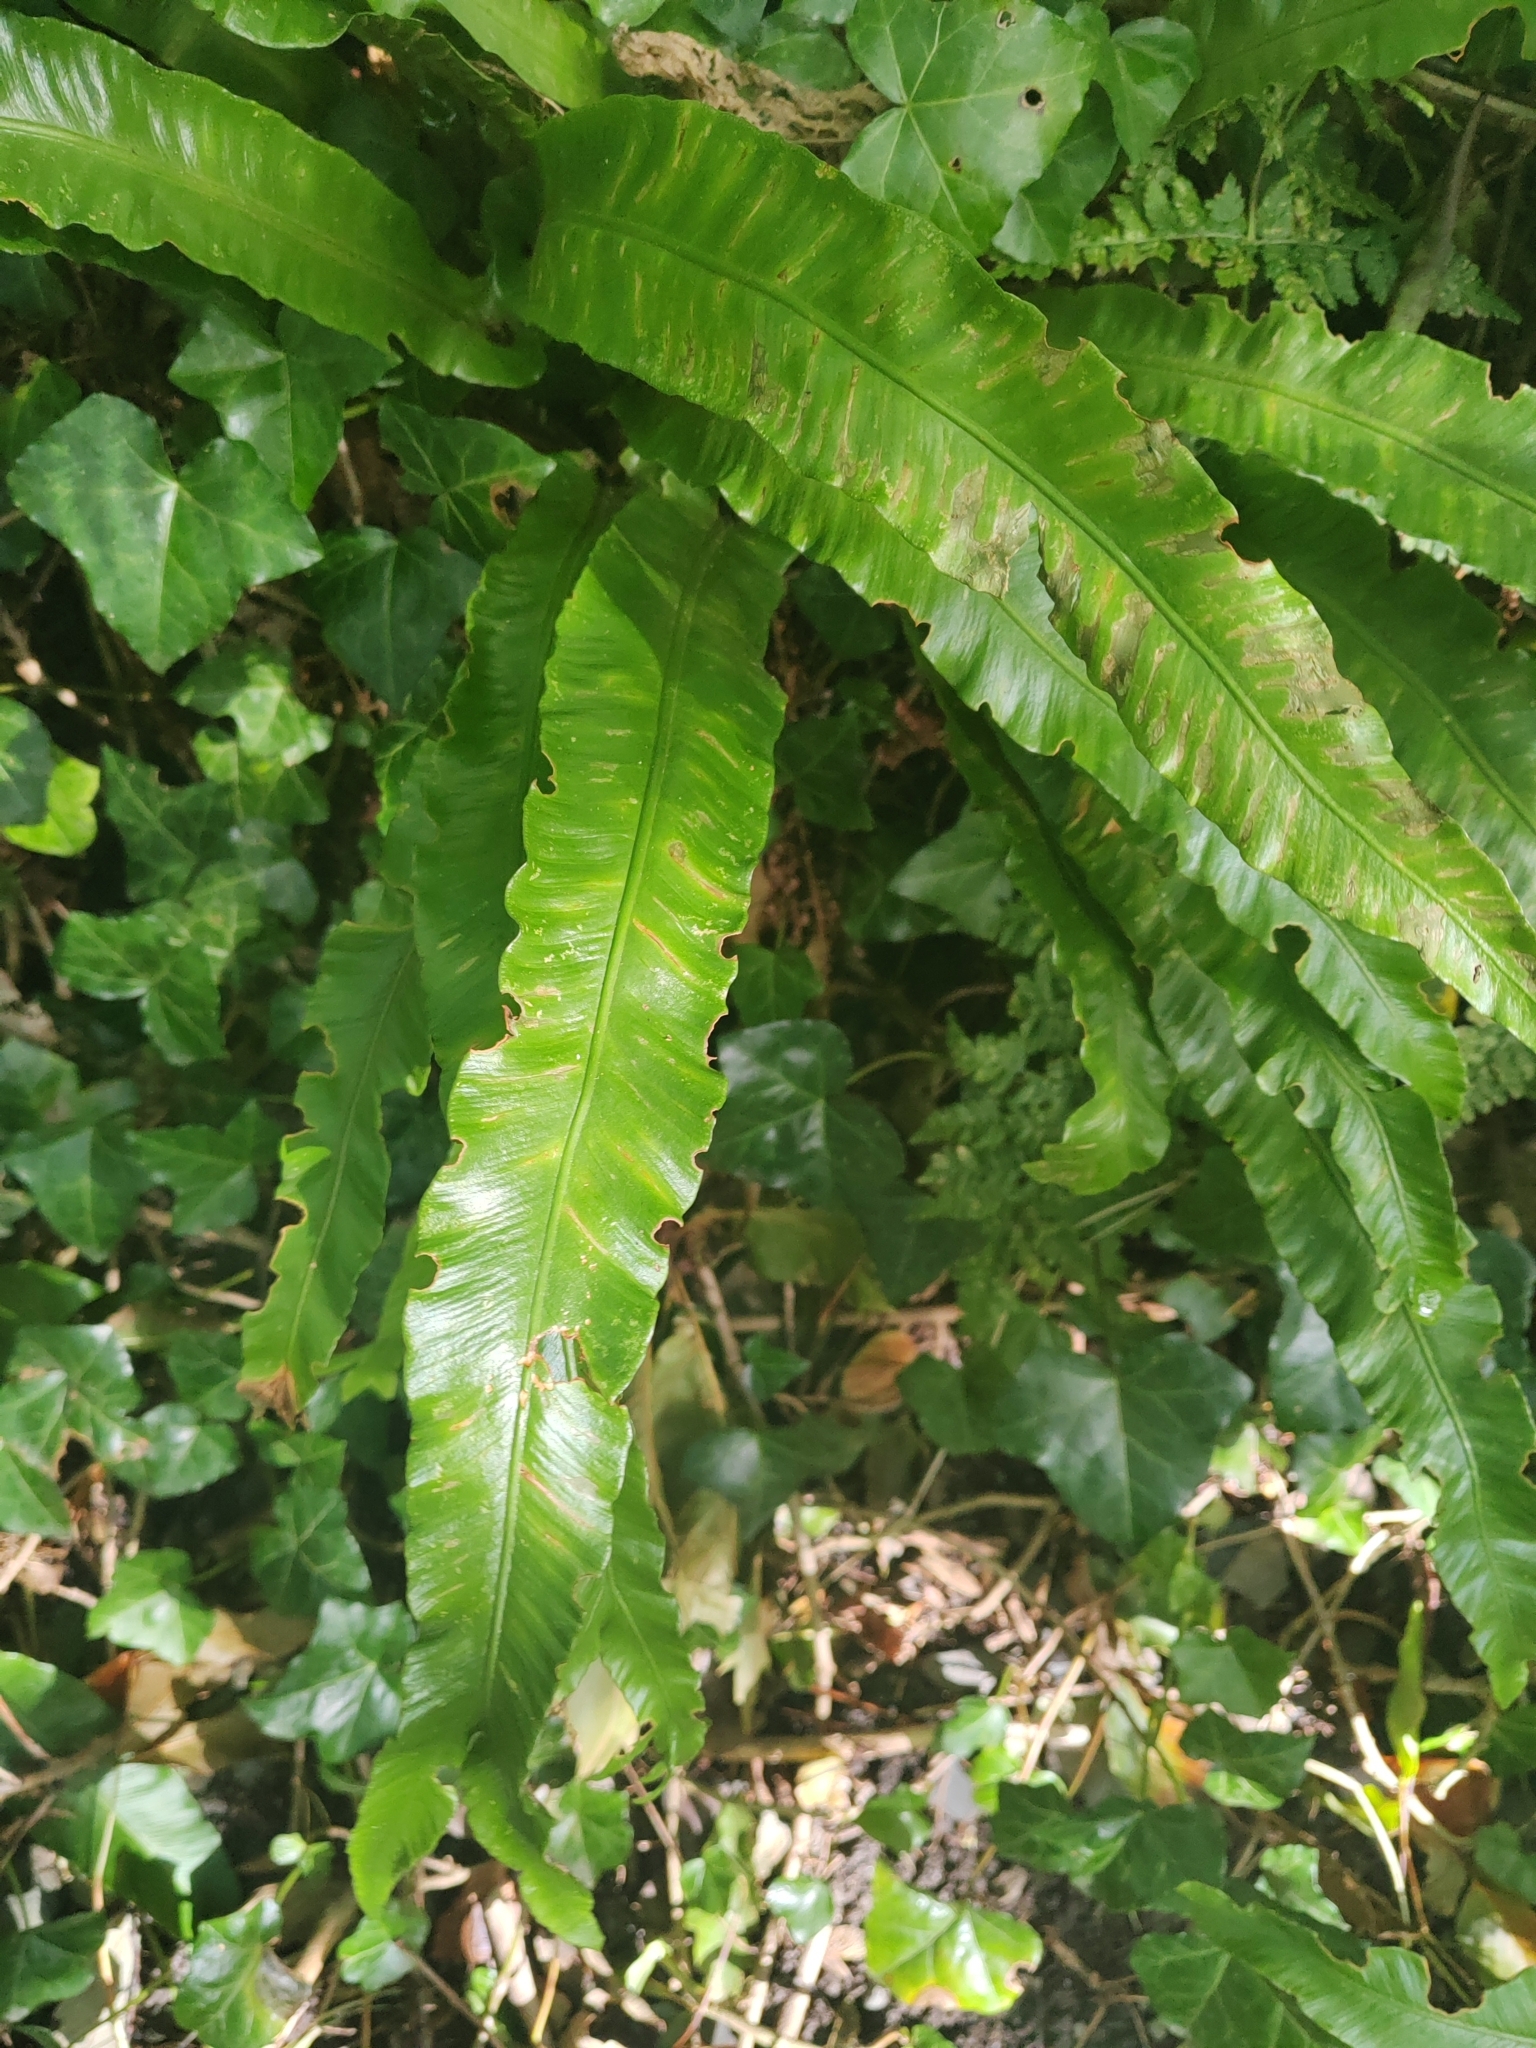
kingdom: Plantae
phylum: Tracheophyta
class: Polypodiopsida
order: Polypodiales
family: Aspleniaceae
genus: Asplenium
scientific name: Asplenium scolopendrium
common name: Hart's-tongue fern
